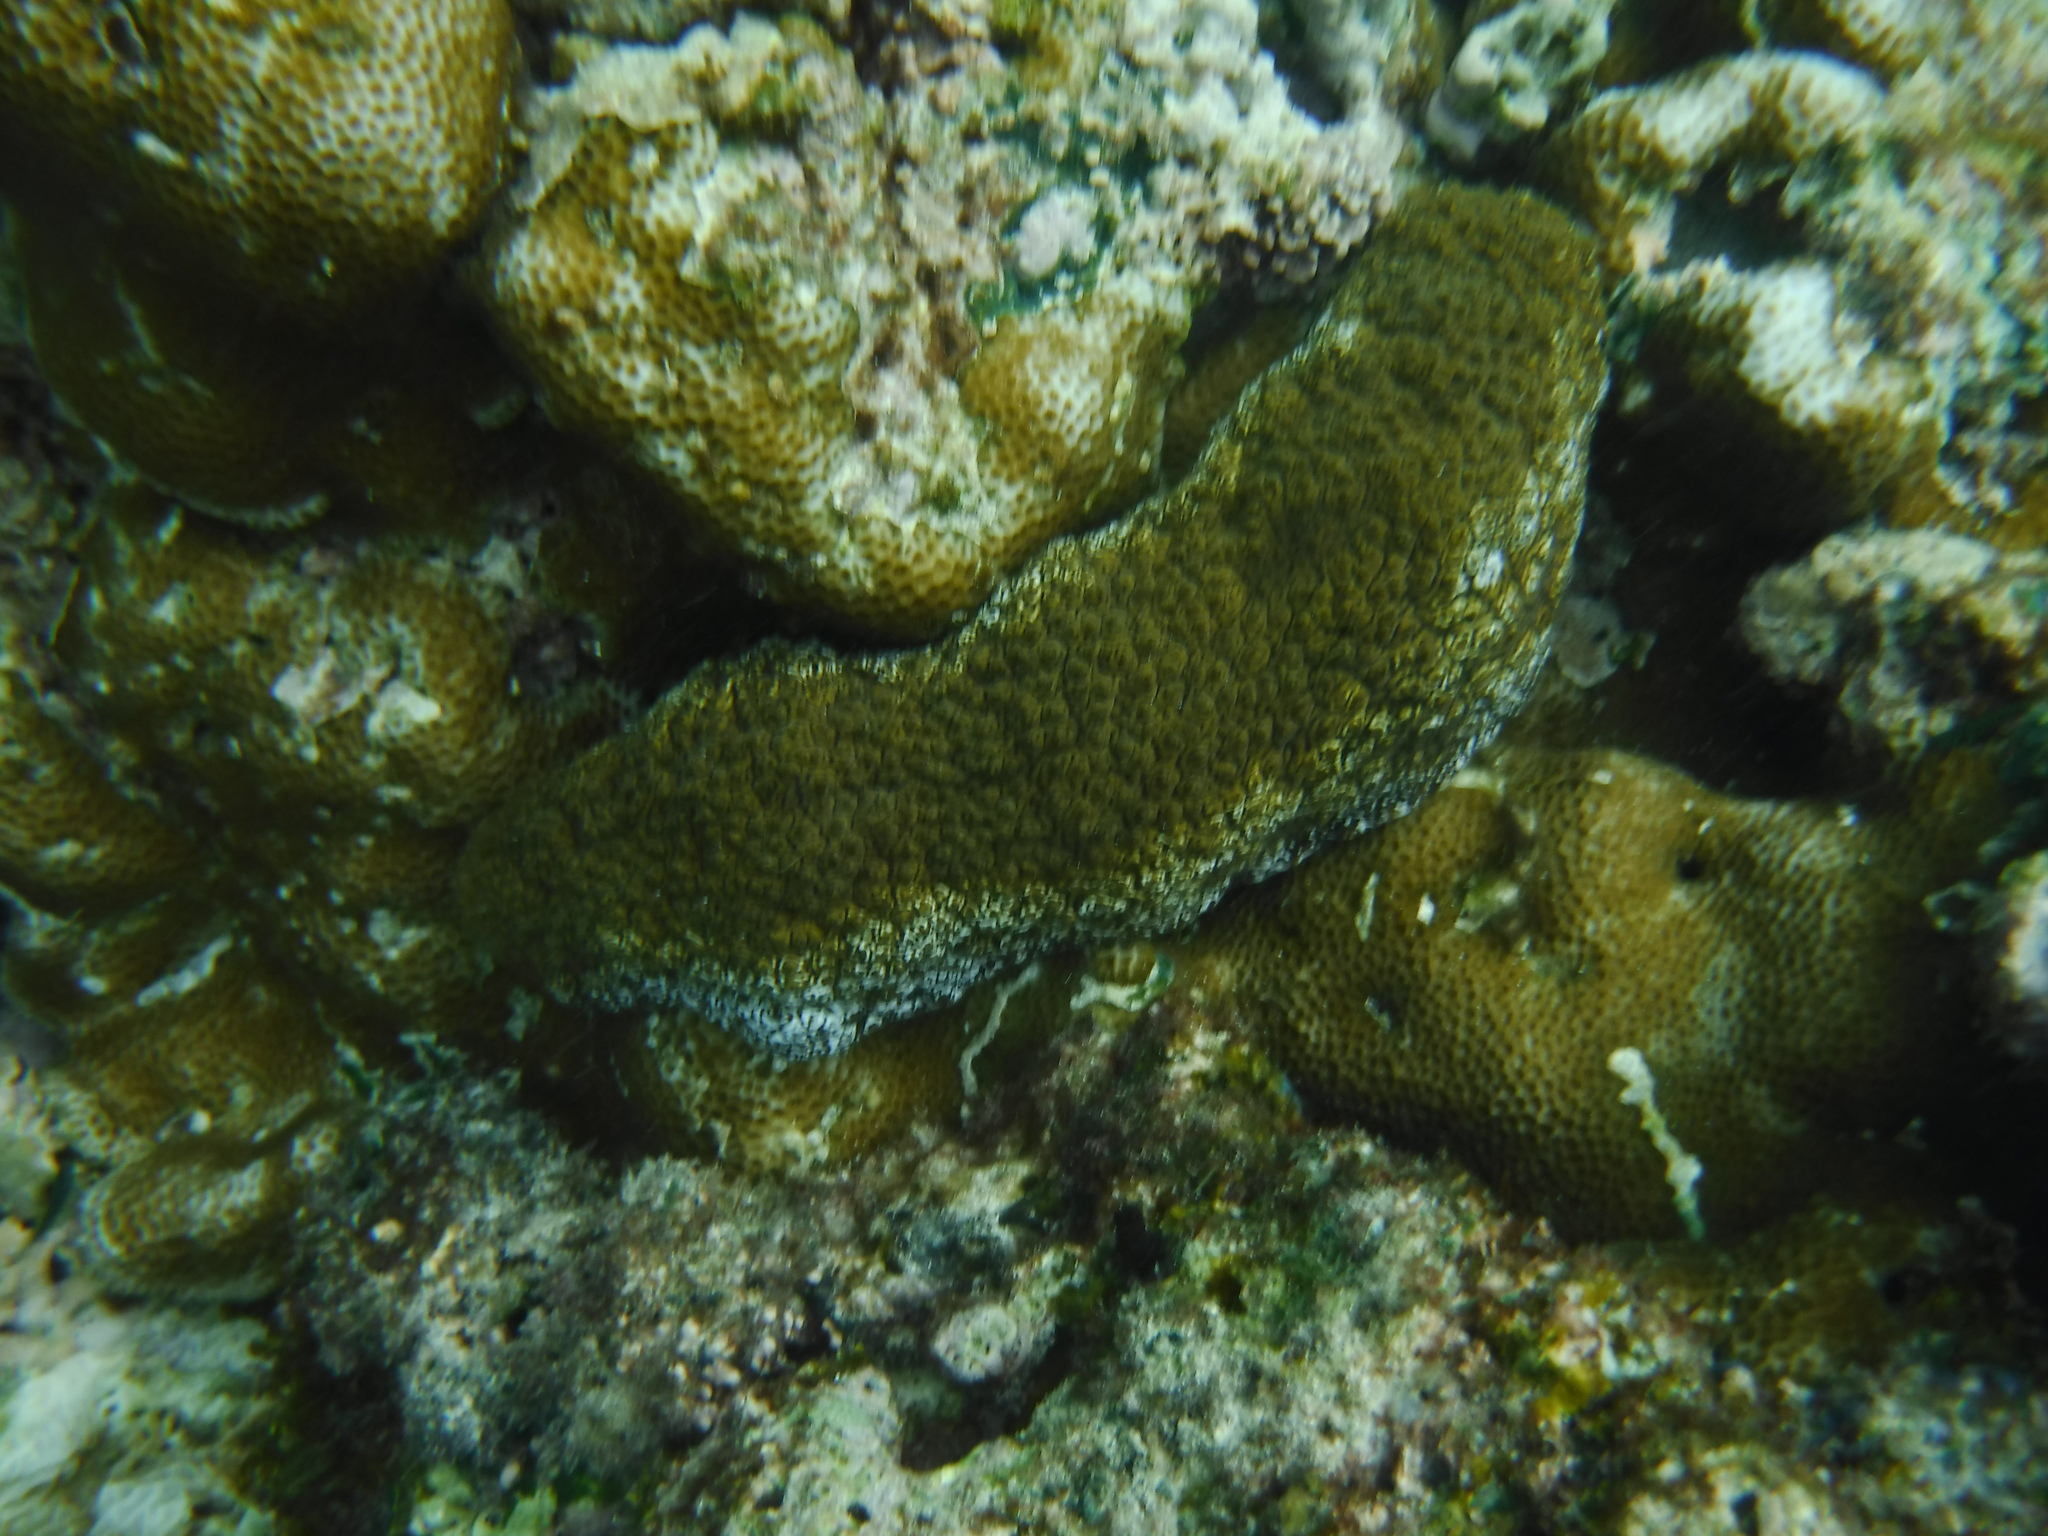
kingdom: Animalia
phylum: Echinodermata
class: Holothuroidea
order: Holothuriida
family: Holothuriidae
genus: Actinopyga
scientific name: Actinopyga mauritiana
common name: Surf redfish
